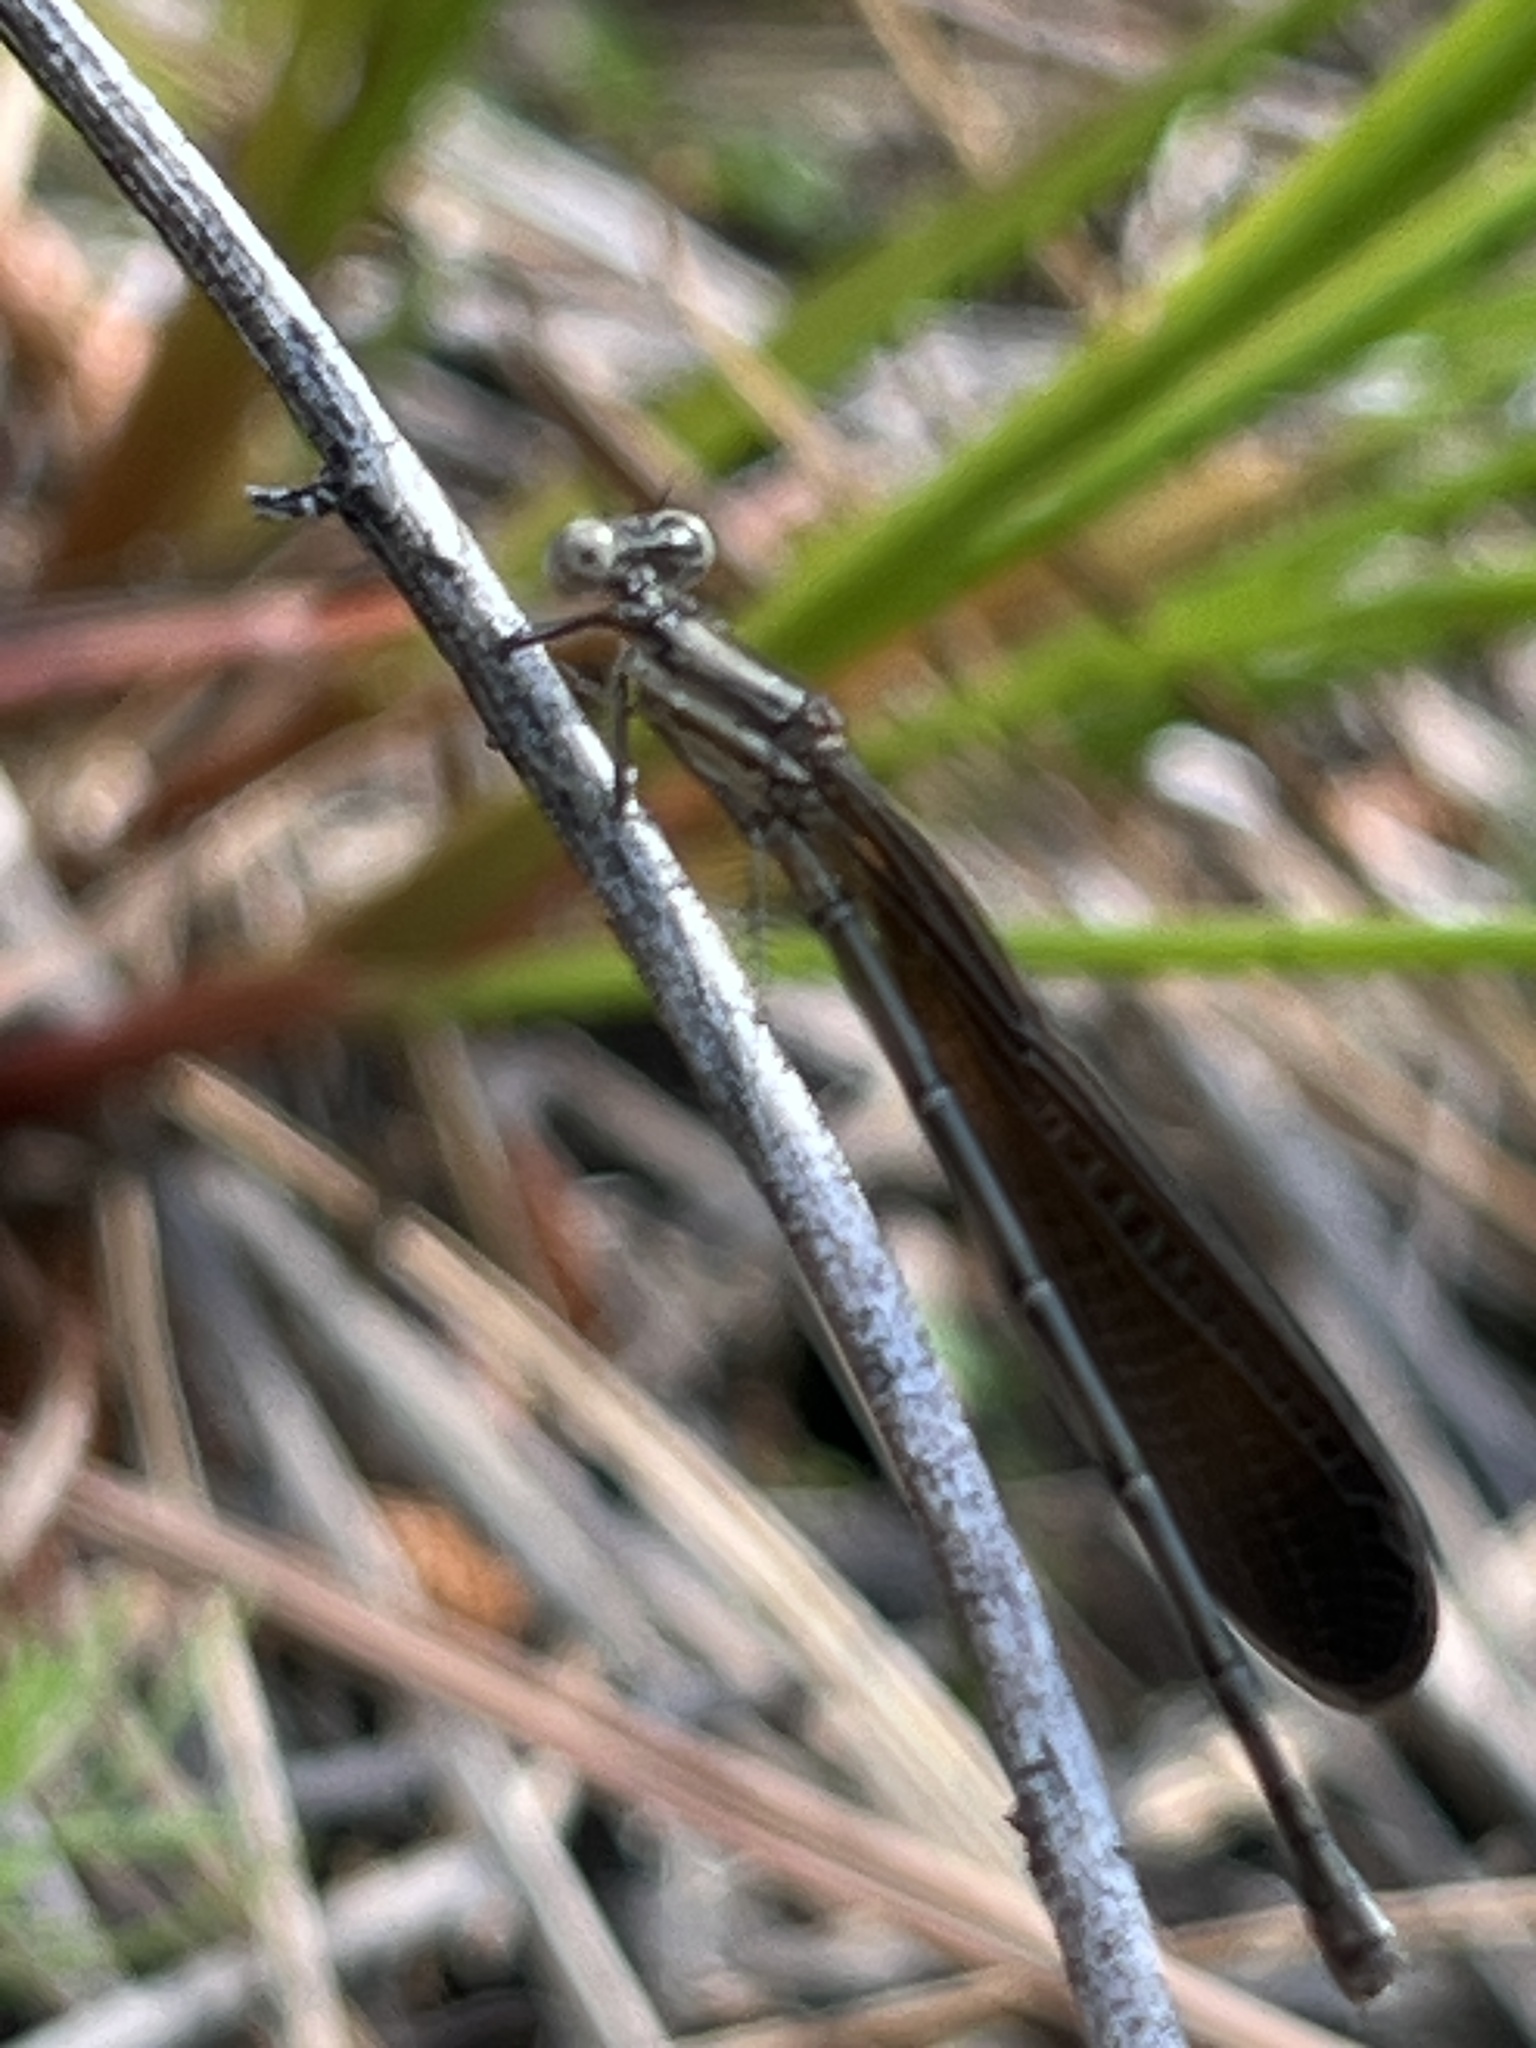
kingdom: Animalia
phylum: Arthropoda
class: Insecta
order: Odonata
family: Coenagrionidae
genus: Argia
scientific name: Argia fumipennis
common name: Variable dancer
